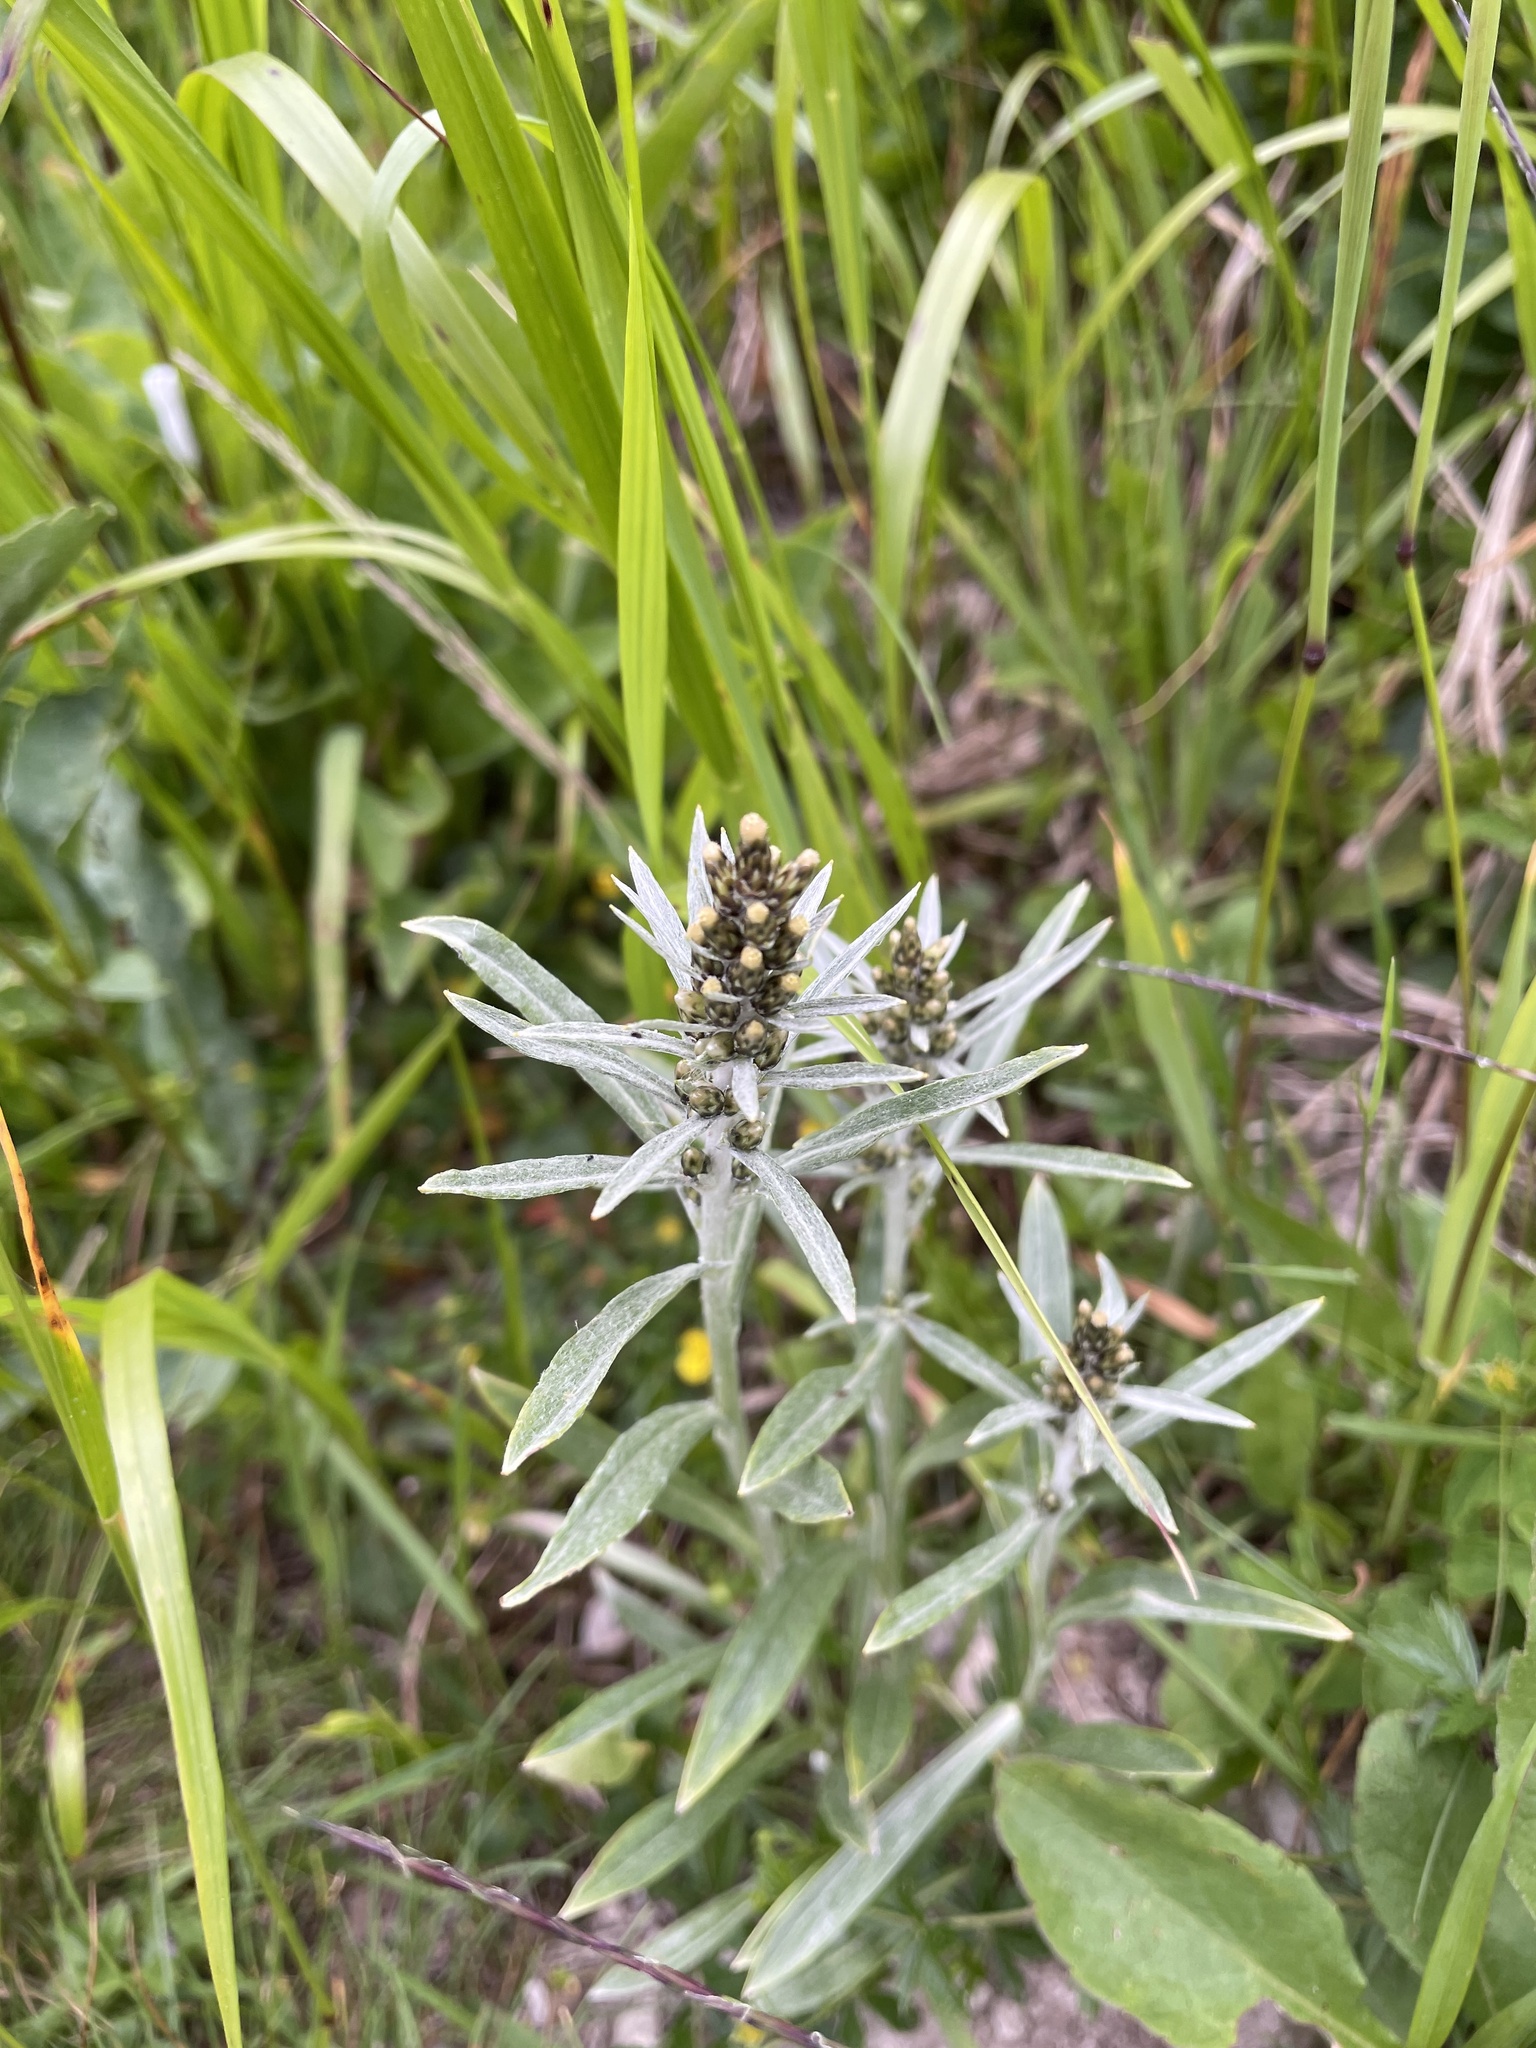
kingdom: Plantae
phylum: Tracheophyta
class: Magnoliopsida
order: Asterales
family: Asteraceae
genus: Omalotheca
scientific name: Omalotheca norvegica
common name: Norwegian arctic-cudweed
